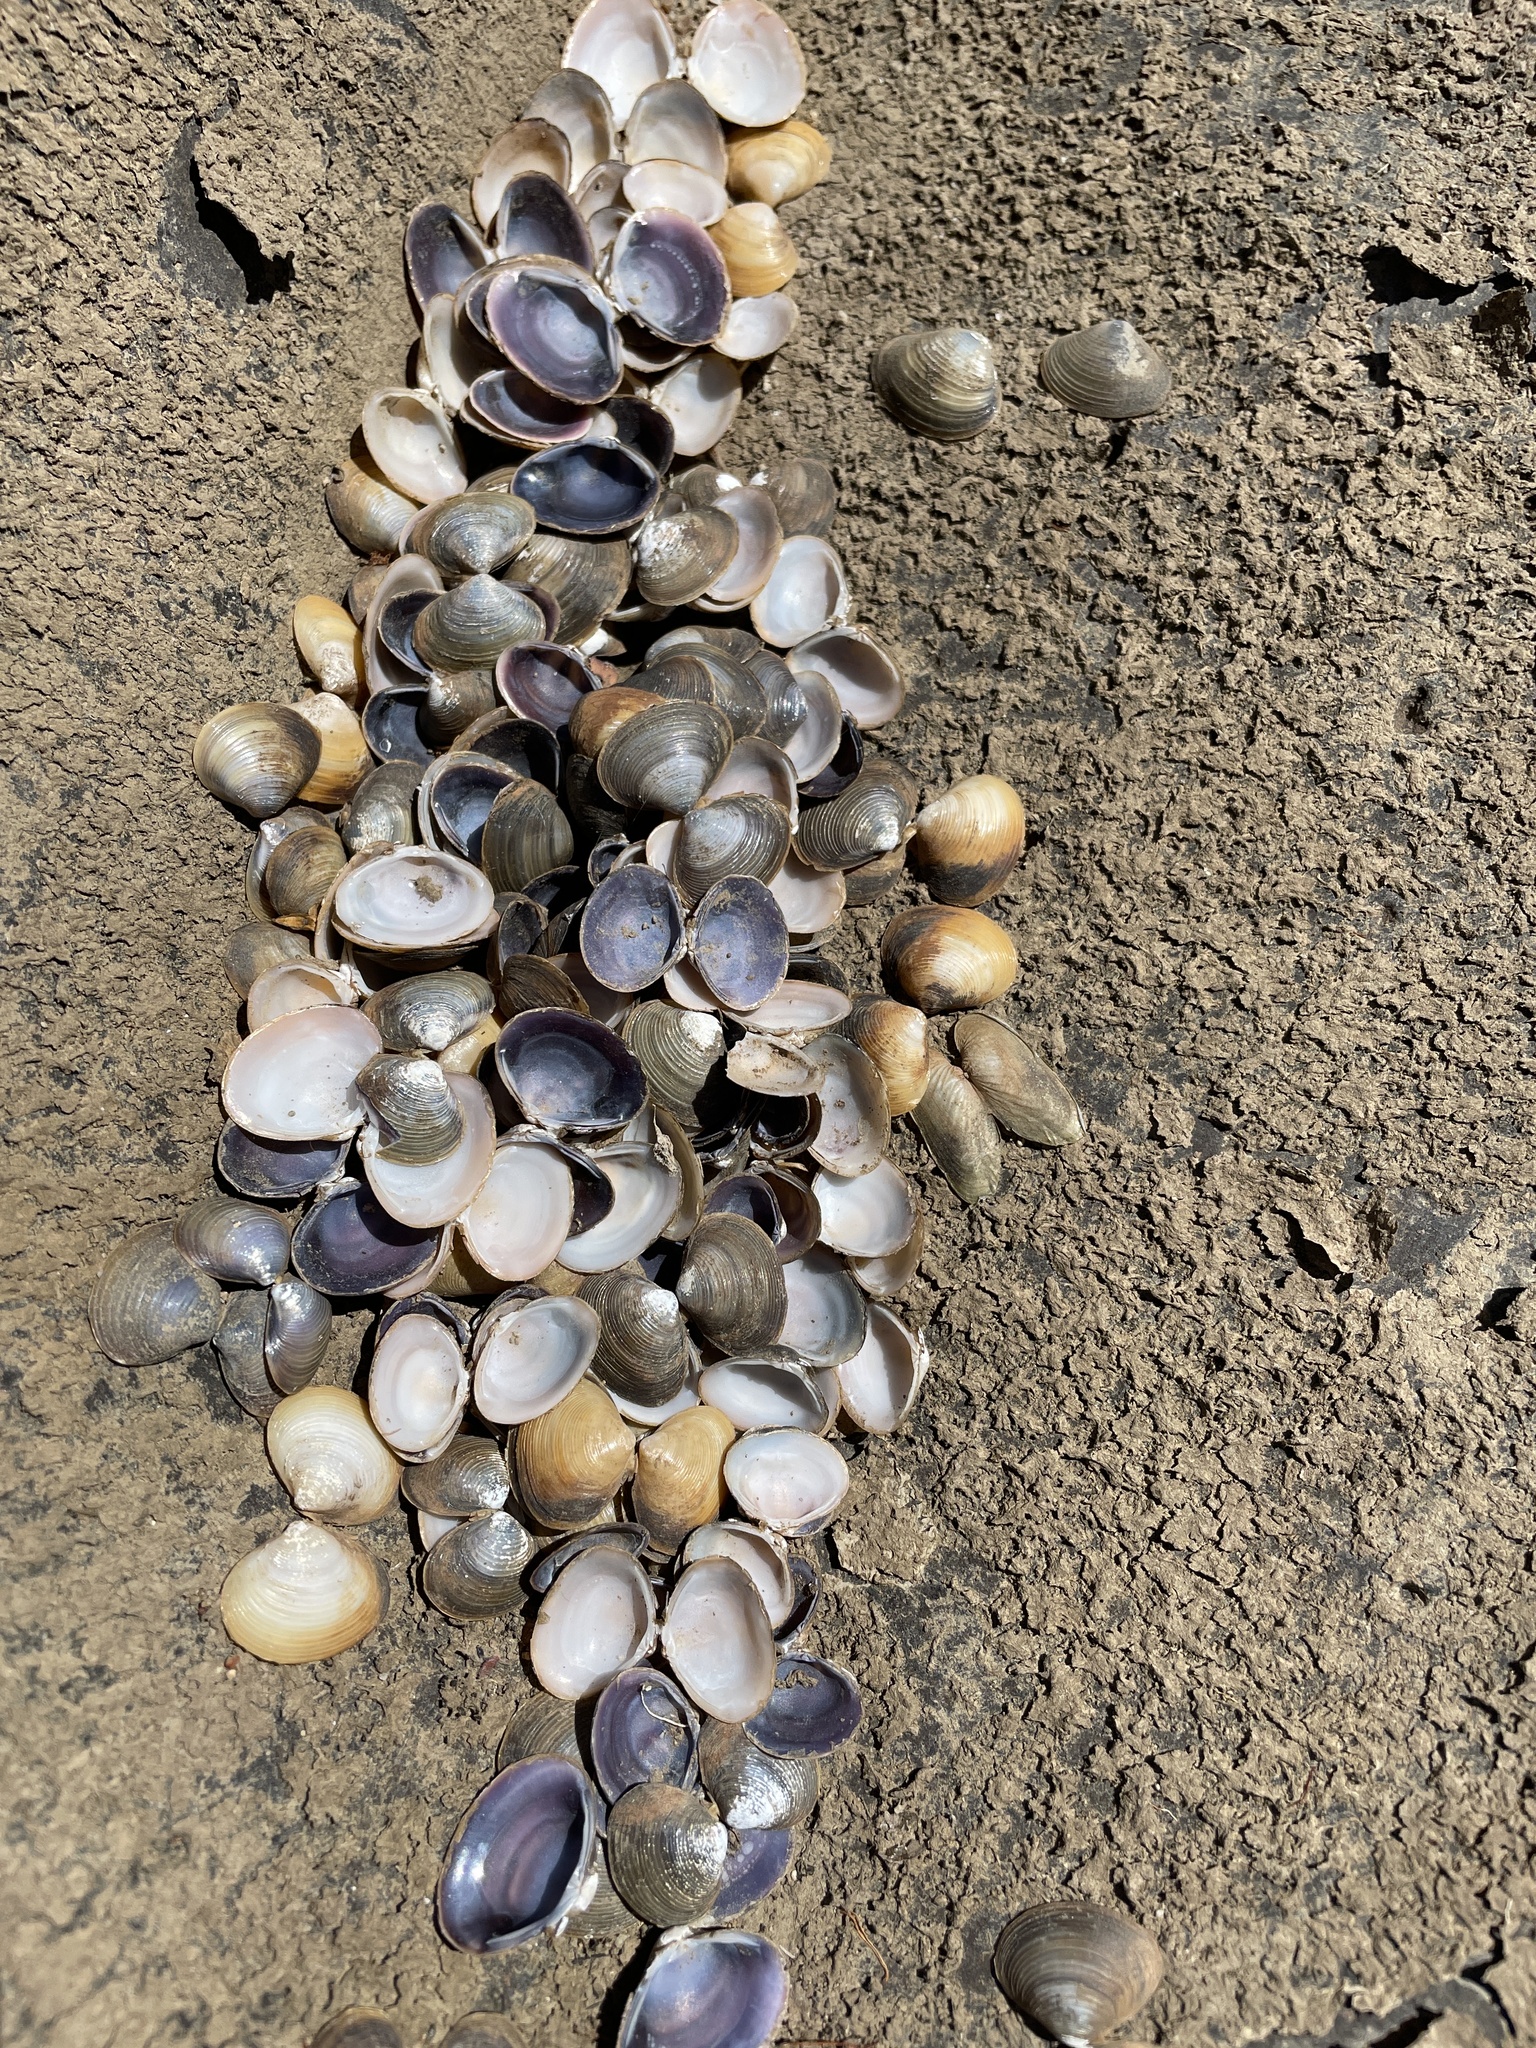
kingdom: Animalia
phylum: Mollusca
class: Bivalvia
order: Venerida
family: Cyrenidae
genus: Corbicula
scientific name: Corbicula australis
